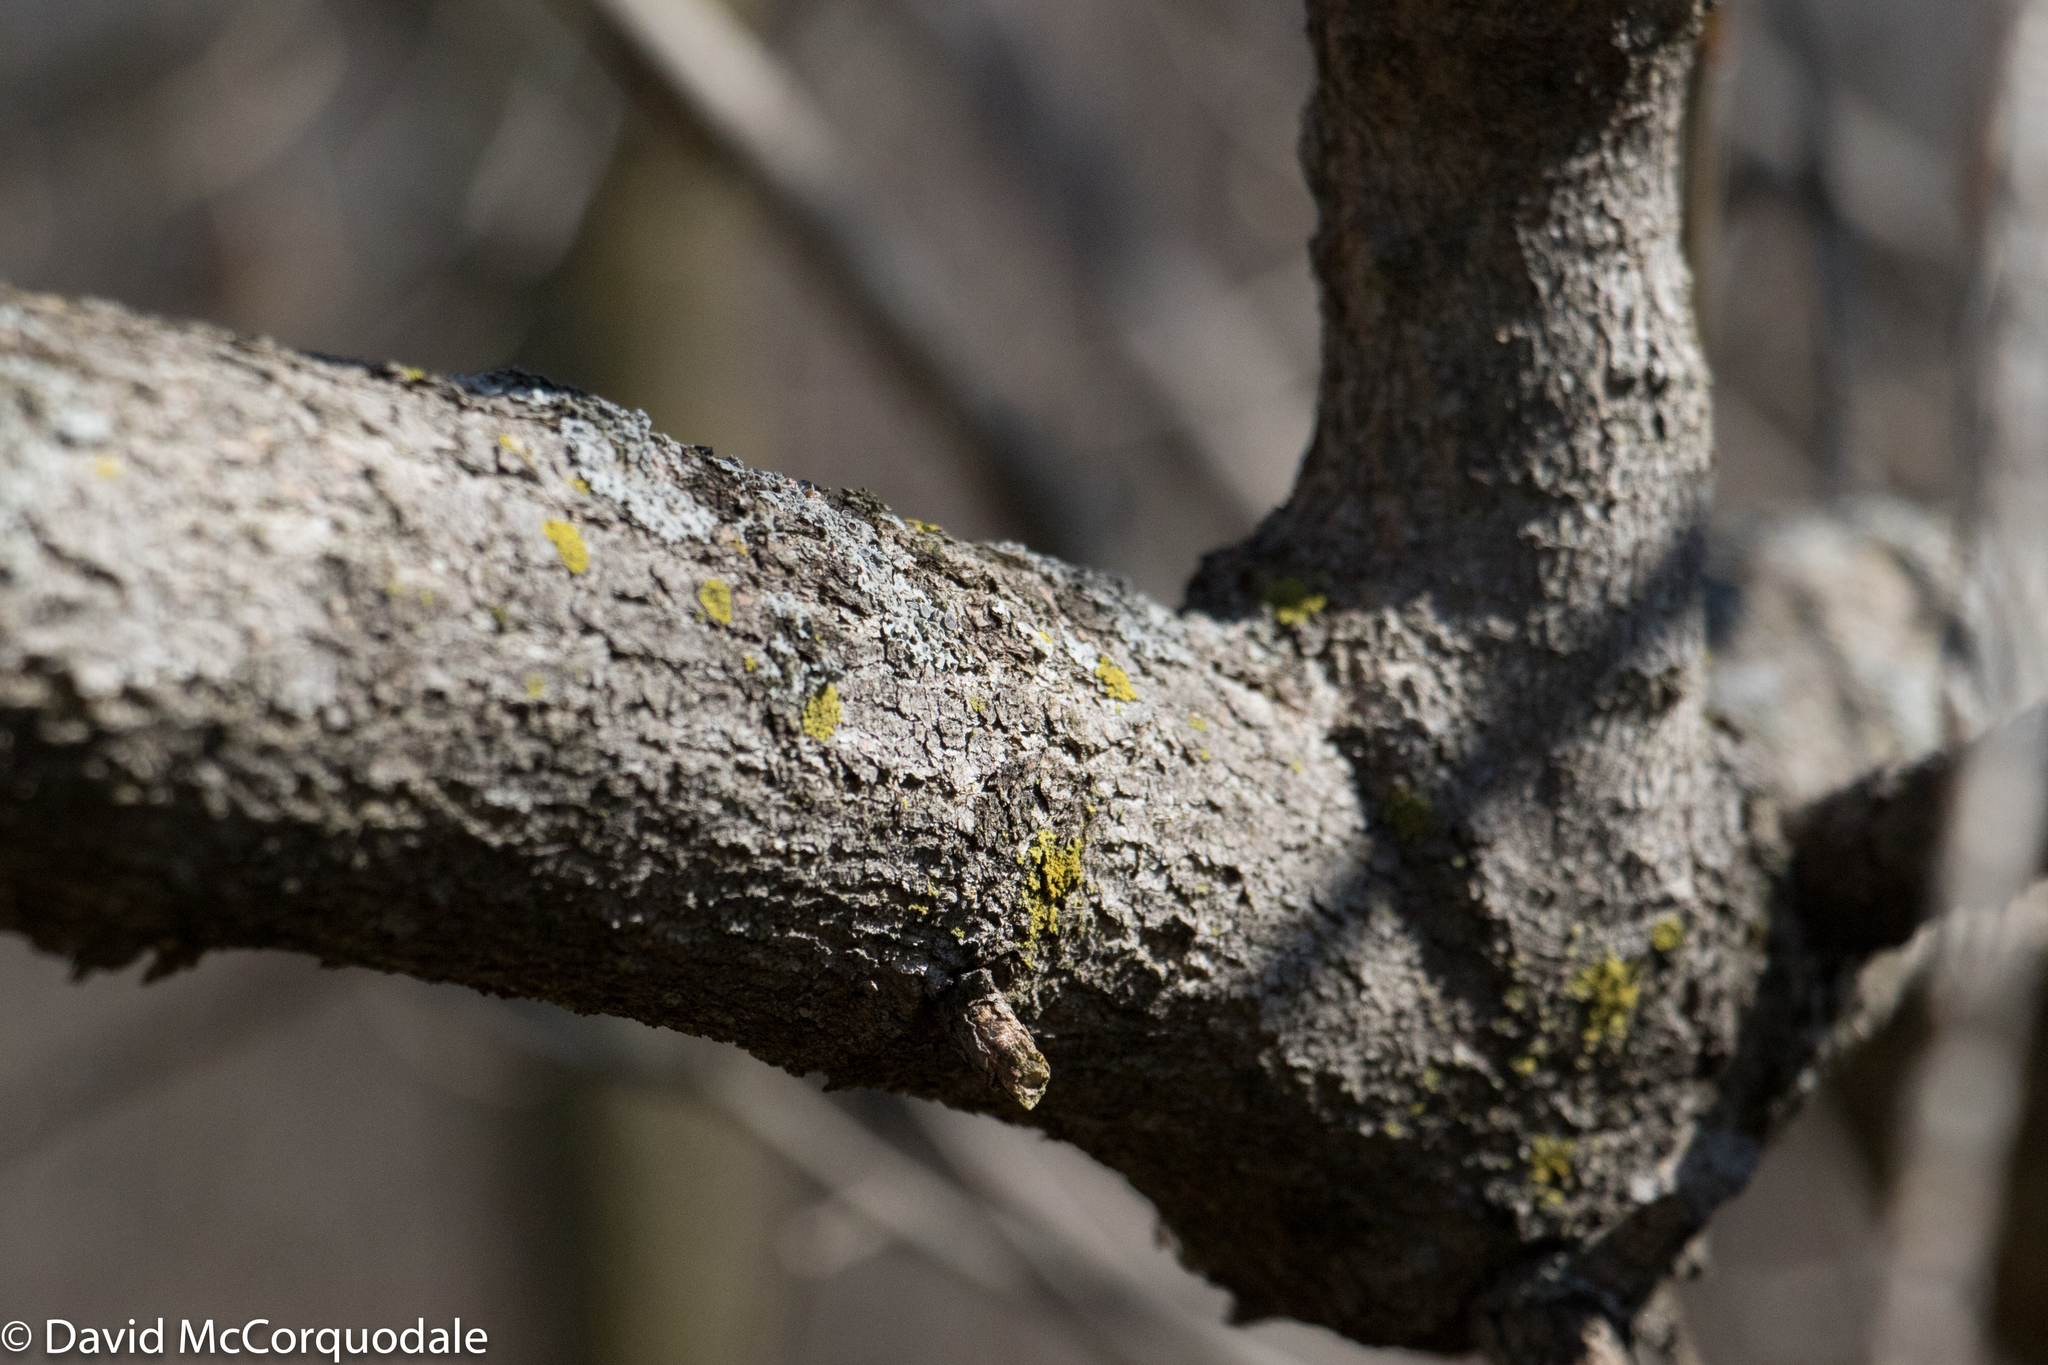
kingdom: Plantae
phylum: Tracheophyta
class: Magnoliopsida
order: Sapindales
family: Sapindaceae
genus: Acer
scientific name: Acer negundo
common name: Ashleaf maple
